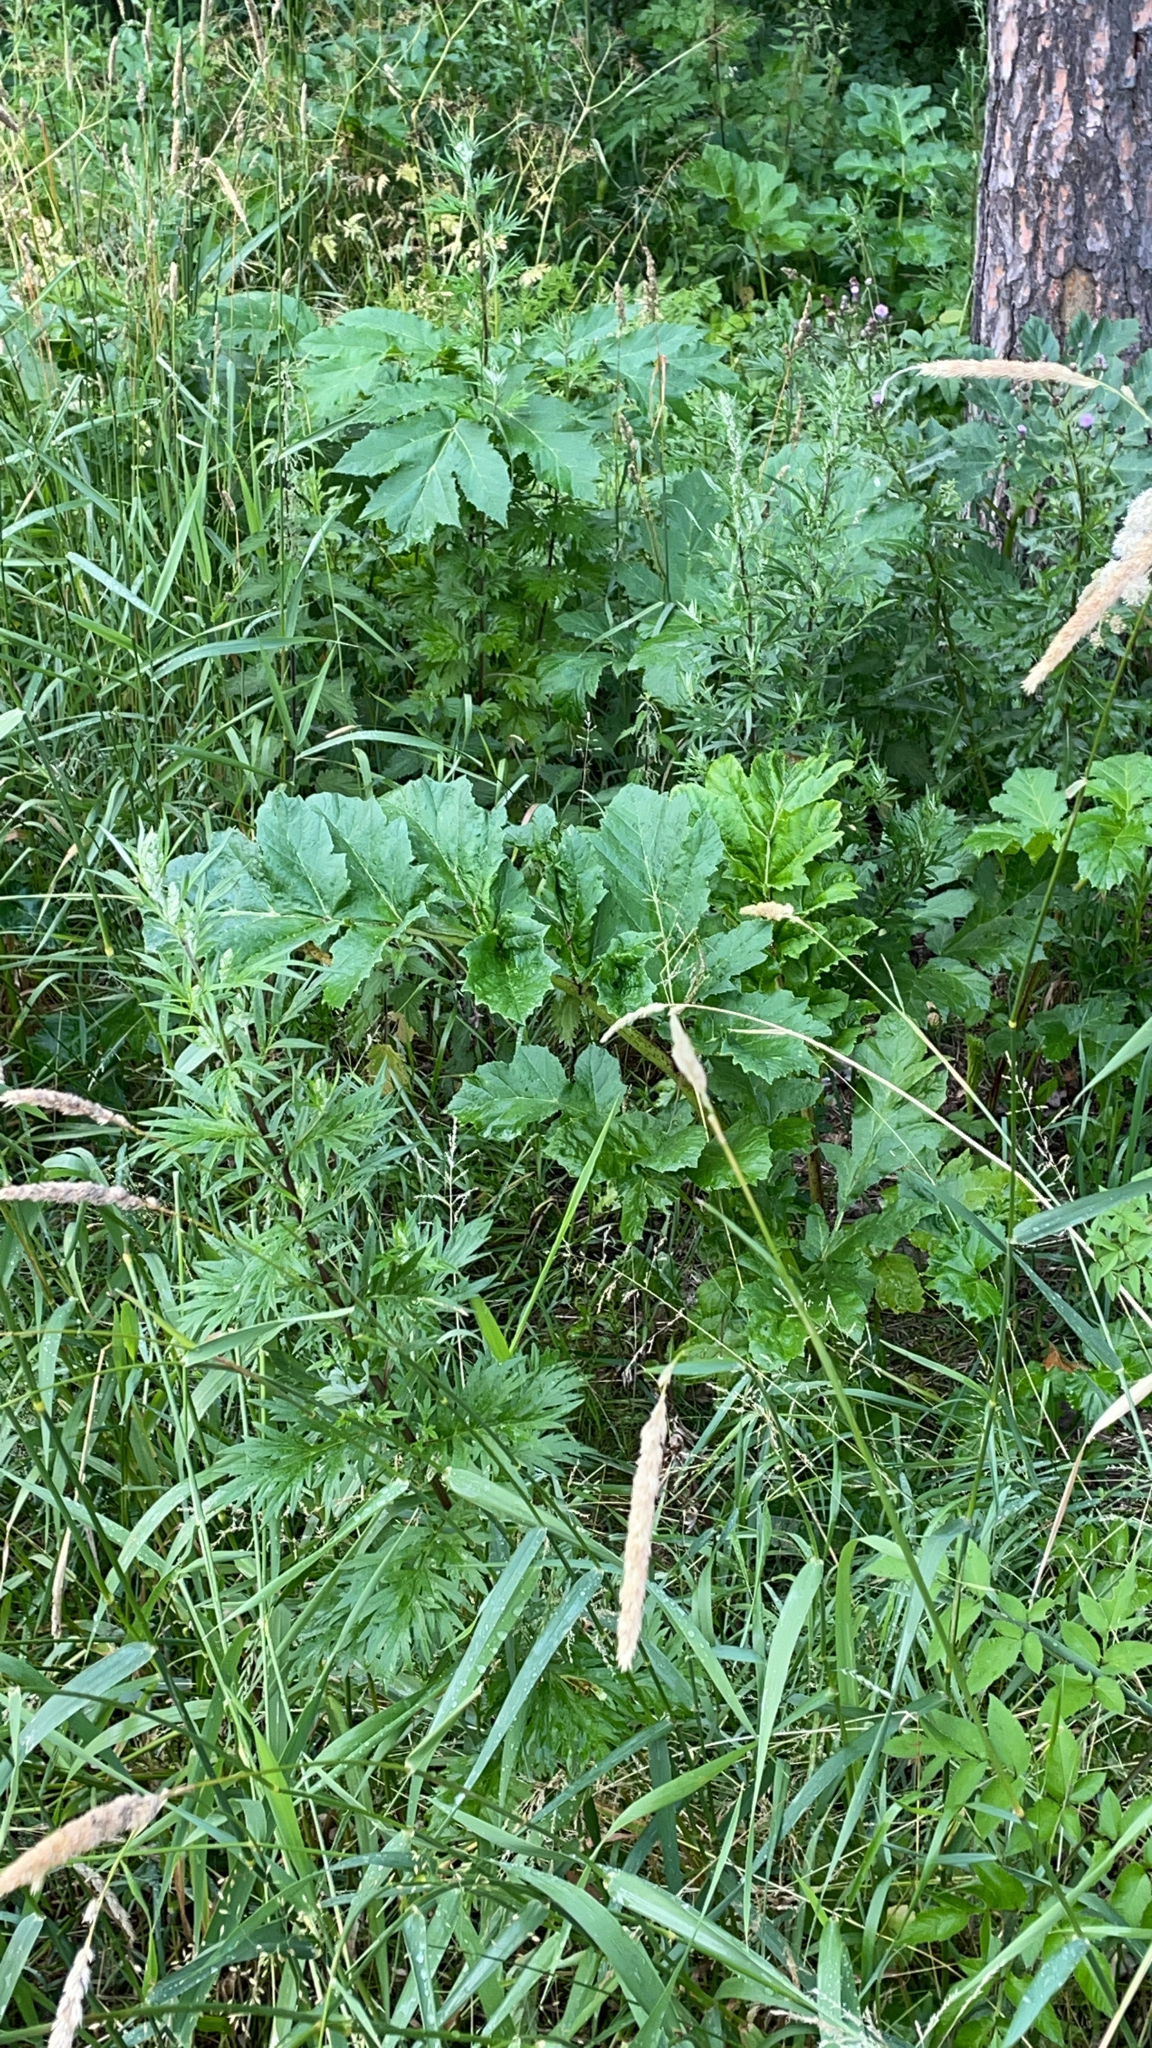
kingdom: Plantae
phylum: Tracheophyta
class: Magnoliopsida
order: Apiales
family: Apiaceae
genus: Heracleum
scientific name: Heracleum sosnowskyi
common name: Sosnowsky's hogweed
